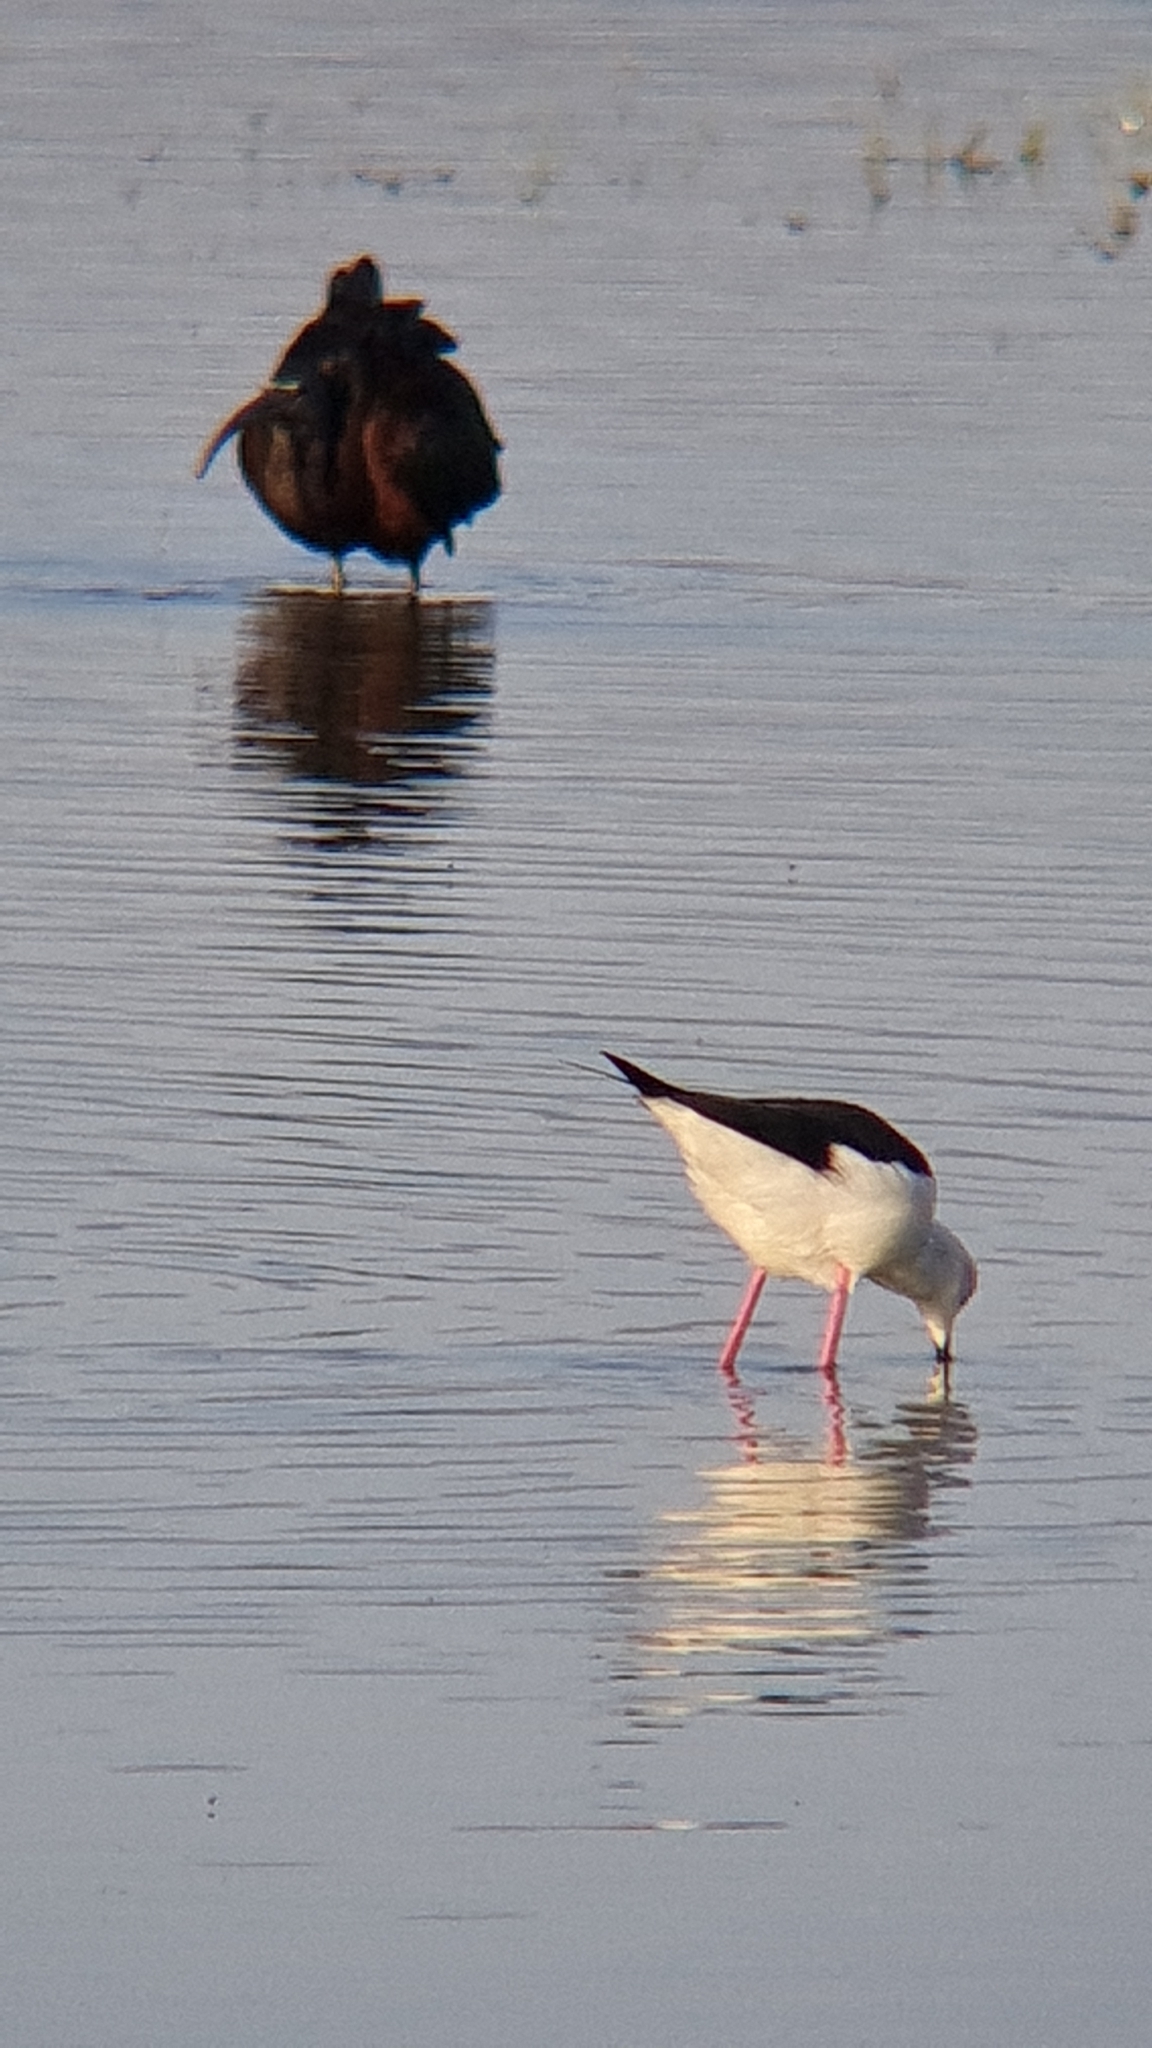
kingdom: Animalia
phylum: Chordata
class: Aves
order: Charadriiformes
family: Recurvirostridae
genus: Himantopus
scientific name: Himantopus himantopus
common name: Black-winged stilt
